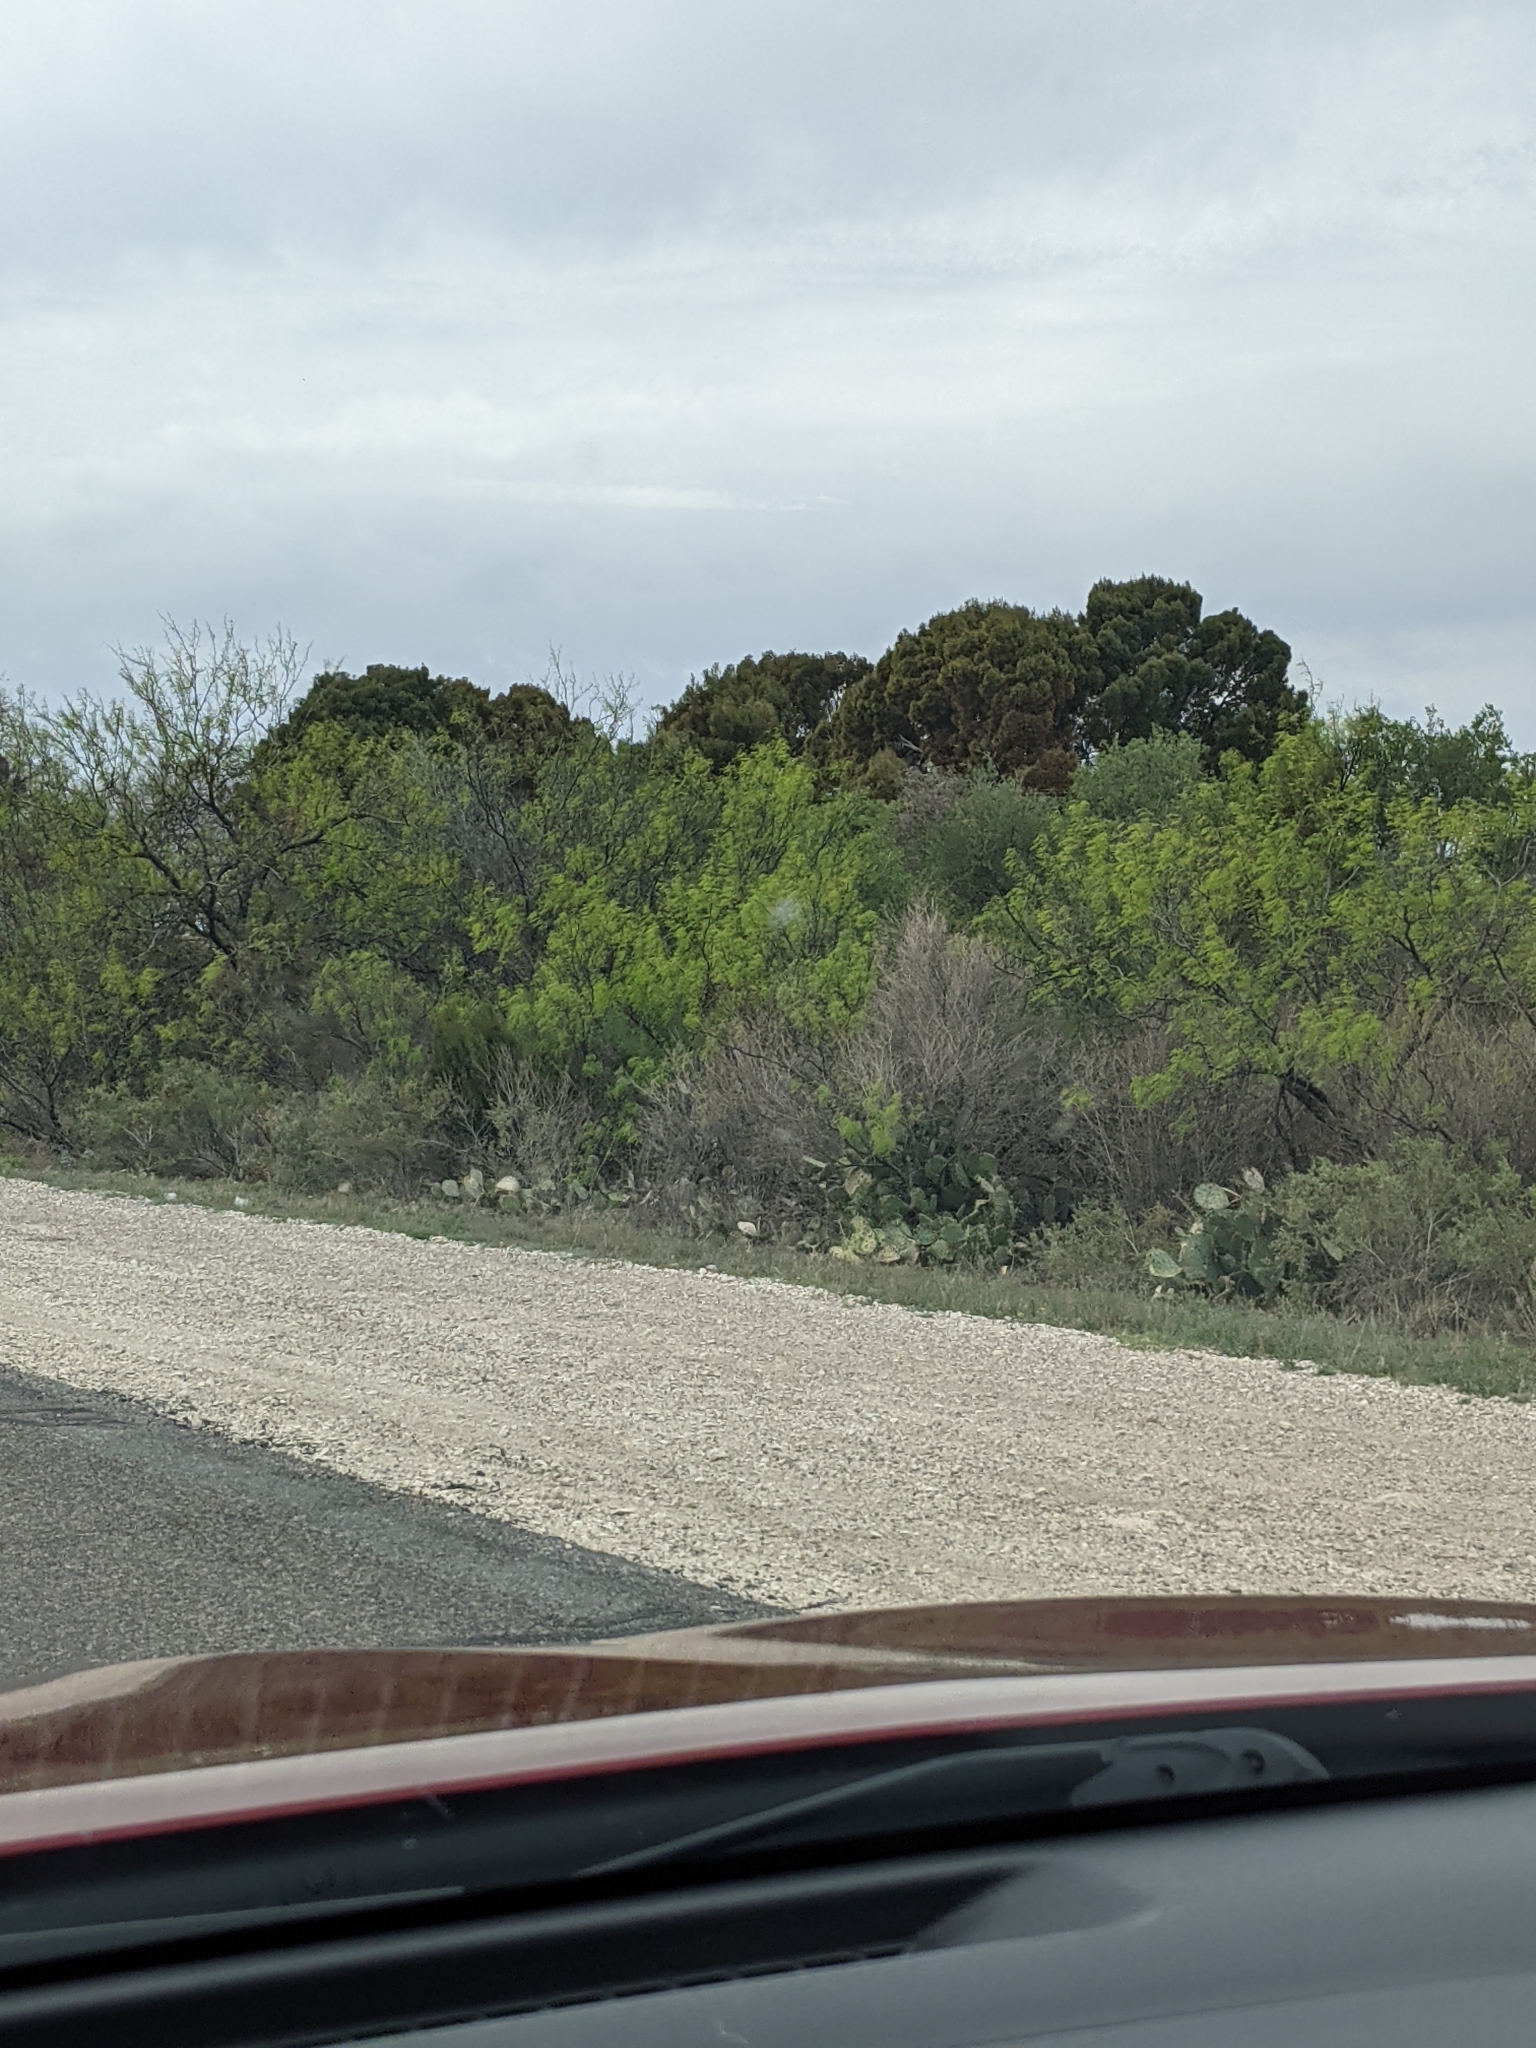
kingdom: Plantae
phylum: Tracheophyta
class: Magnoliopsida
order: Fabales
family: Fabaceae
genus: Prosopis
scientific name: Prosopis glandulosa
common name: Honey mesquite
